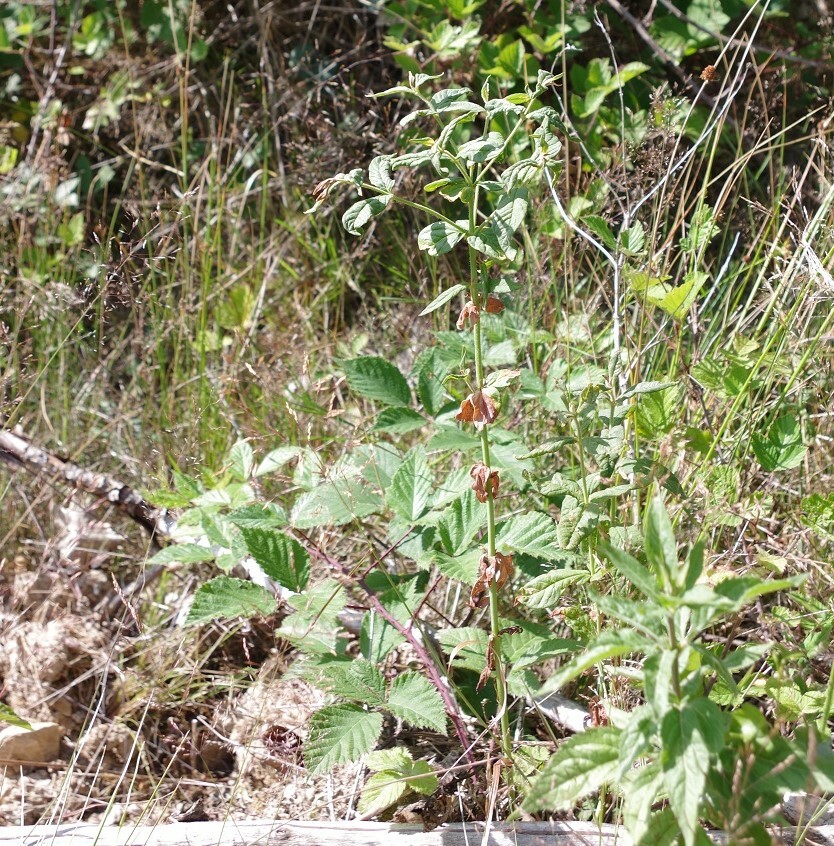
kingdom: Plantae
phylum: Tracheophyta
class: Magnoliopsida
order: Ericales
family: Primulaceae
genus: Lysimachia
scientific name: Lysimachia vulgaris
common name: Yellow loosestrife
